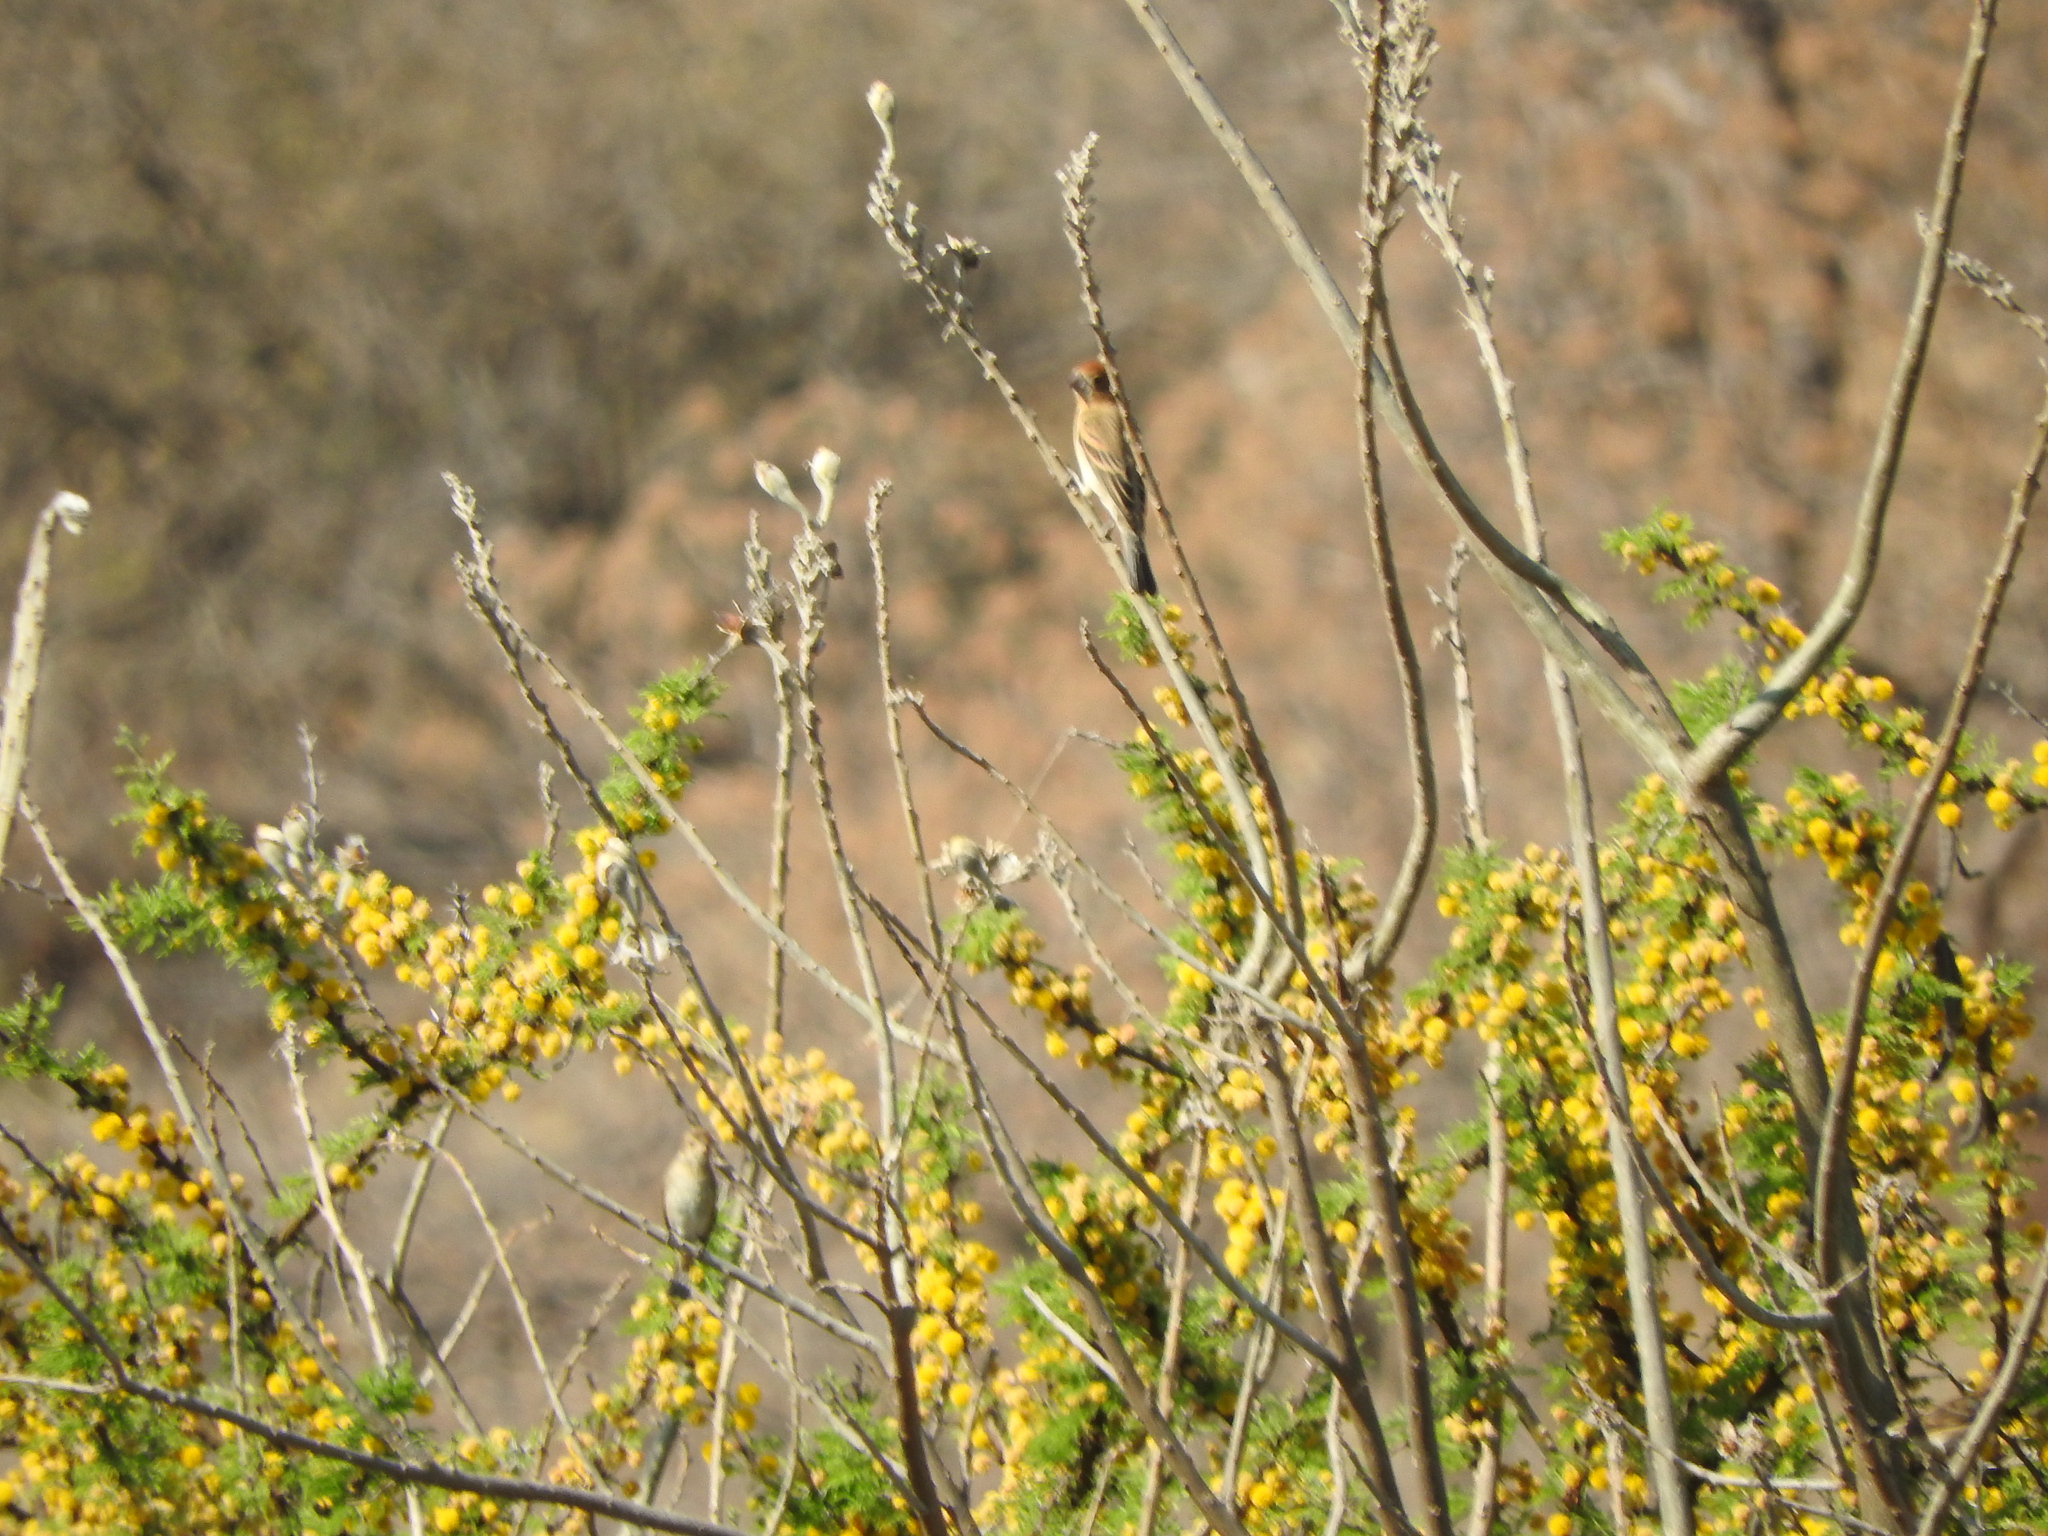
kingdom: Animalia
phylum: Chordata
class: Aves
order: Passeriformes
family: Cardinalidae
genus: Passerina
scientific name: Passerina caerulea
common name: Blue grosbeak
